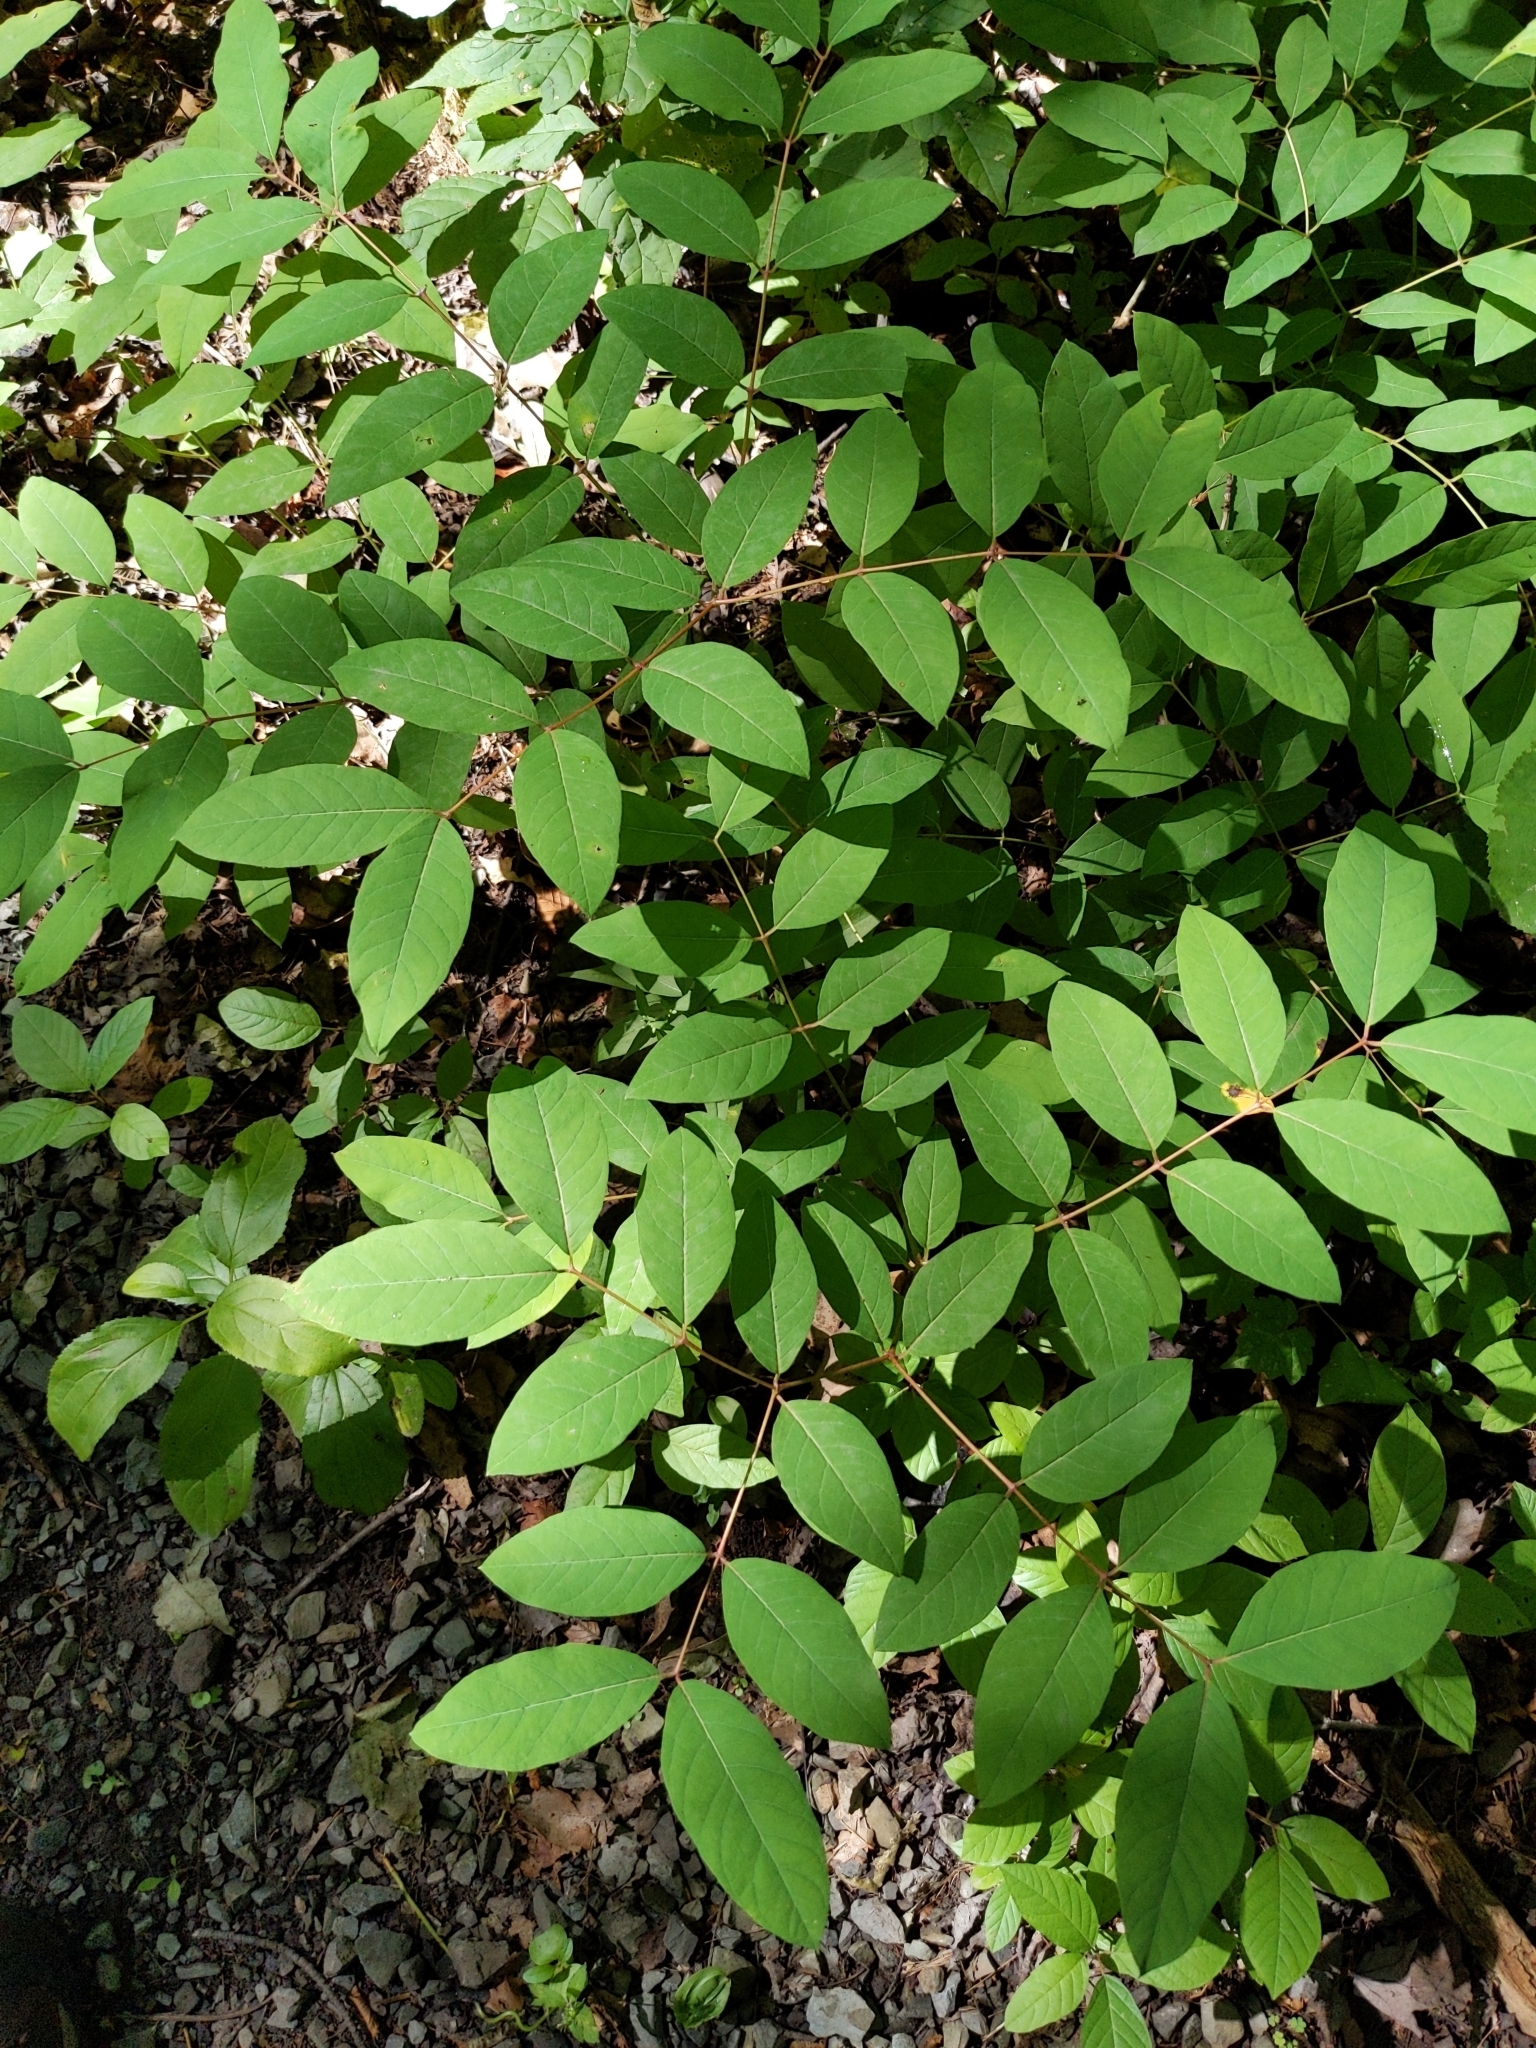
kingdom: Plantae
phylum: Tracheophyta
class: Magnoliopsida
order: Gentianales
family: Apocynaceae
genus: Apocynum
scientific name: Apocynum androsaemifolium
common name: Spreading dogbane
